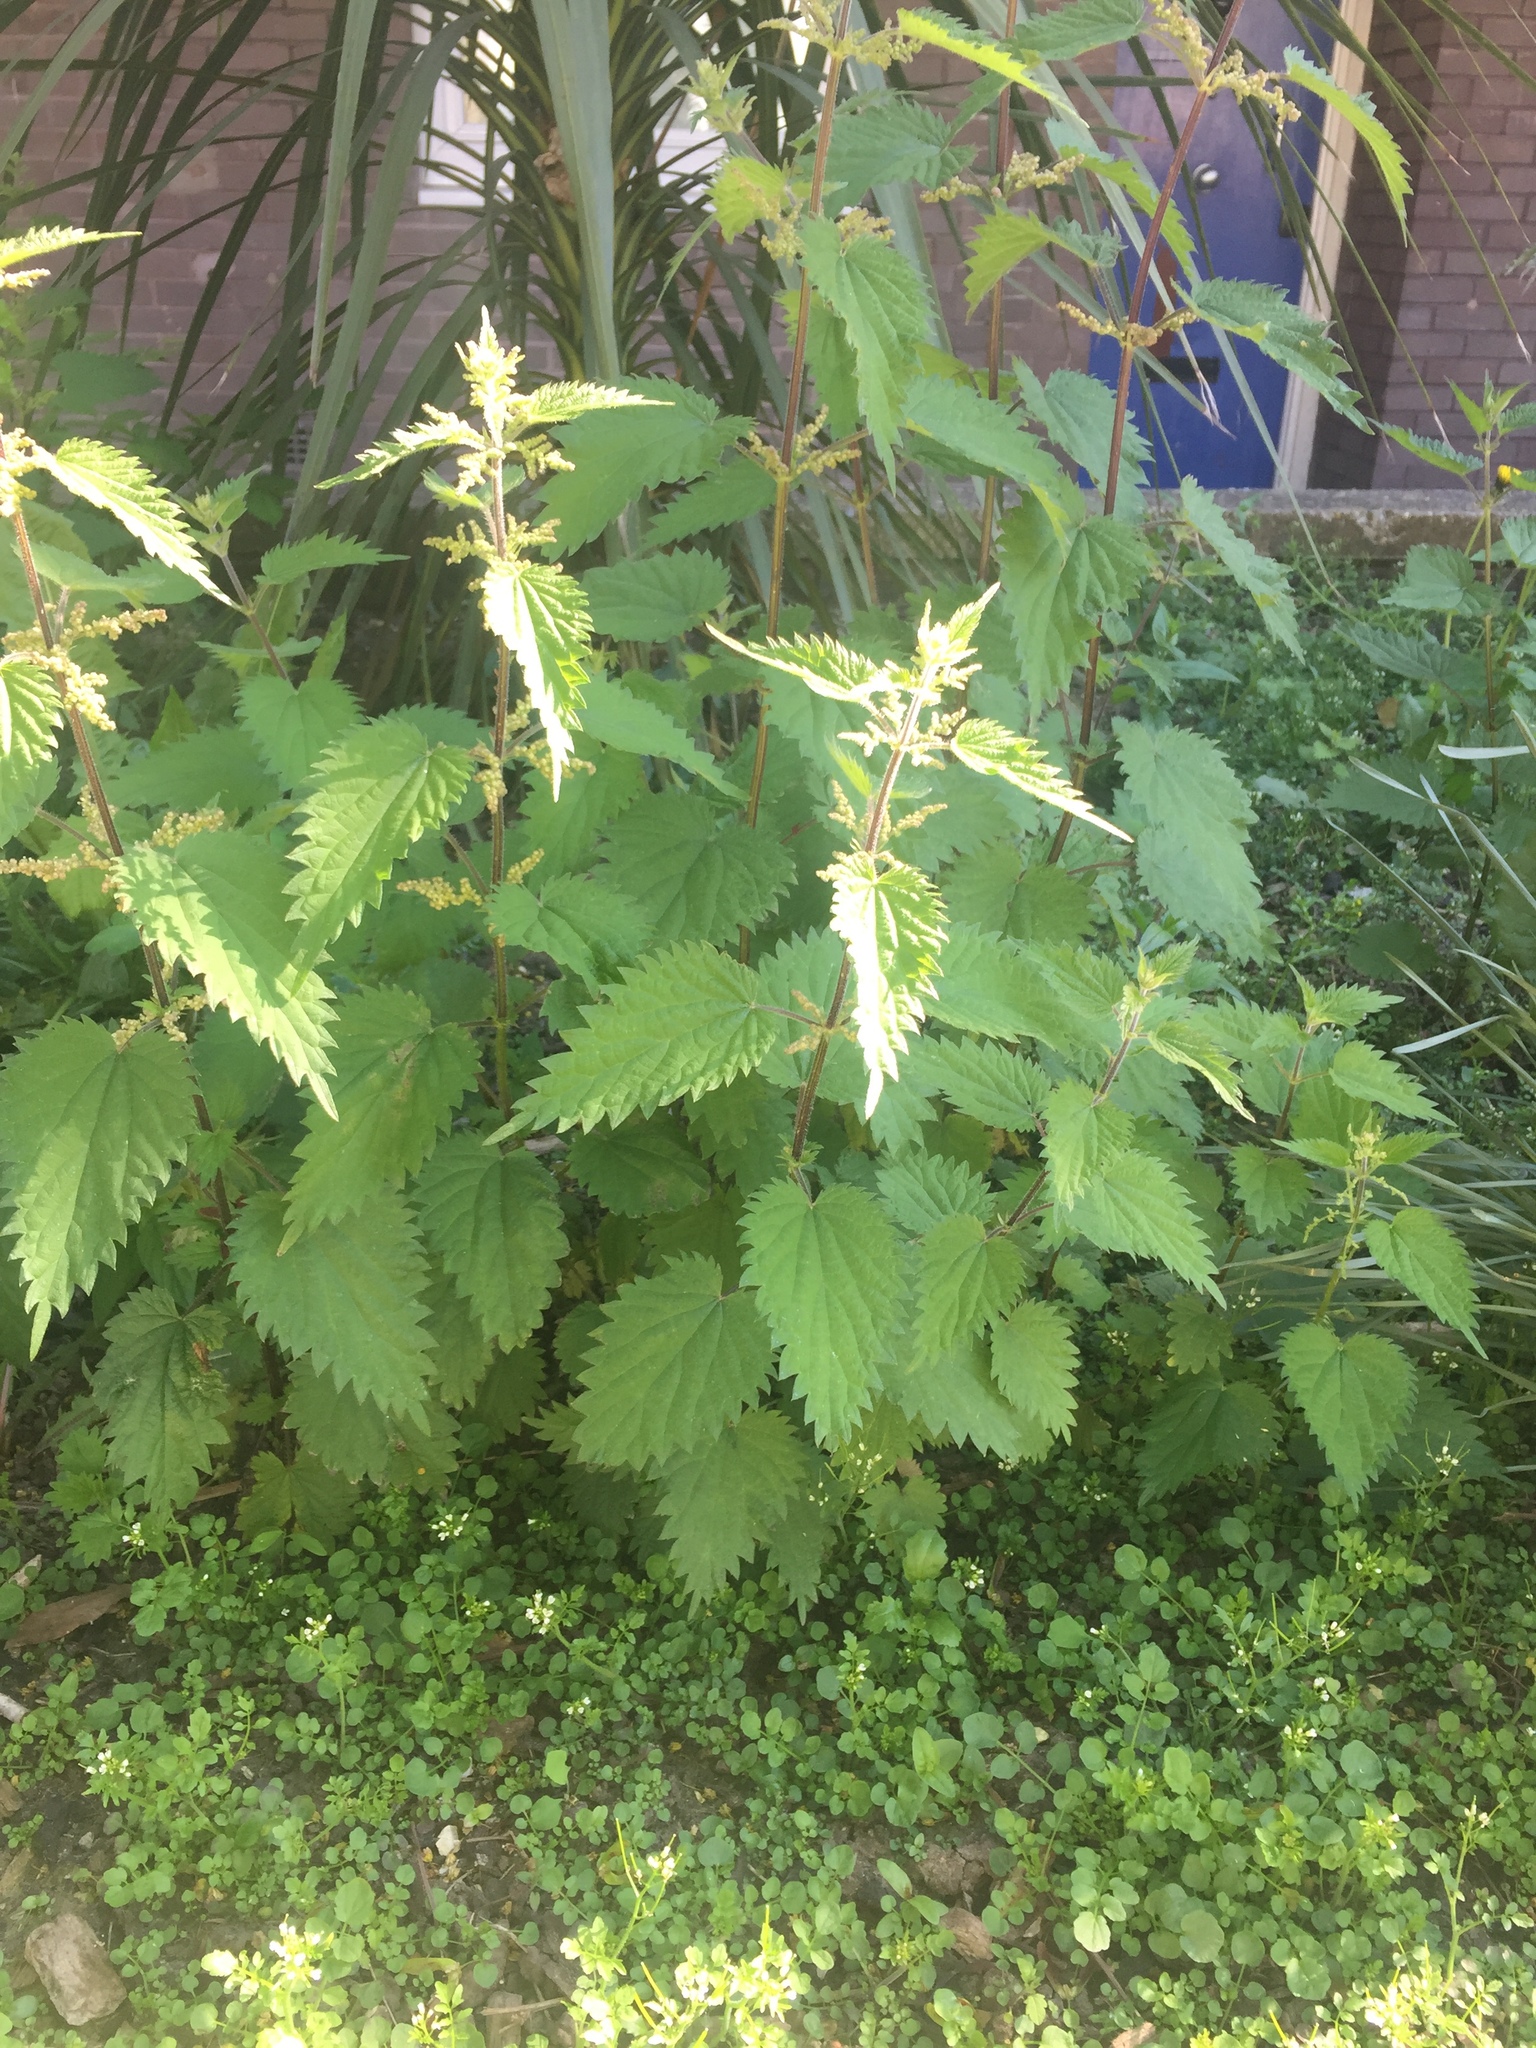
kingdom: Plantae
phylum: Tracheophyta
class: Magnoliopsida
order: Rosales
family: Urticaceae
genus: Urtica
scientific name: Urtica dioica
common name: Common nettle
